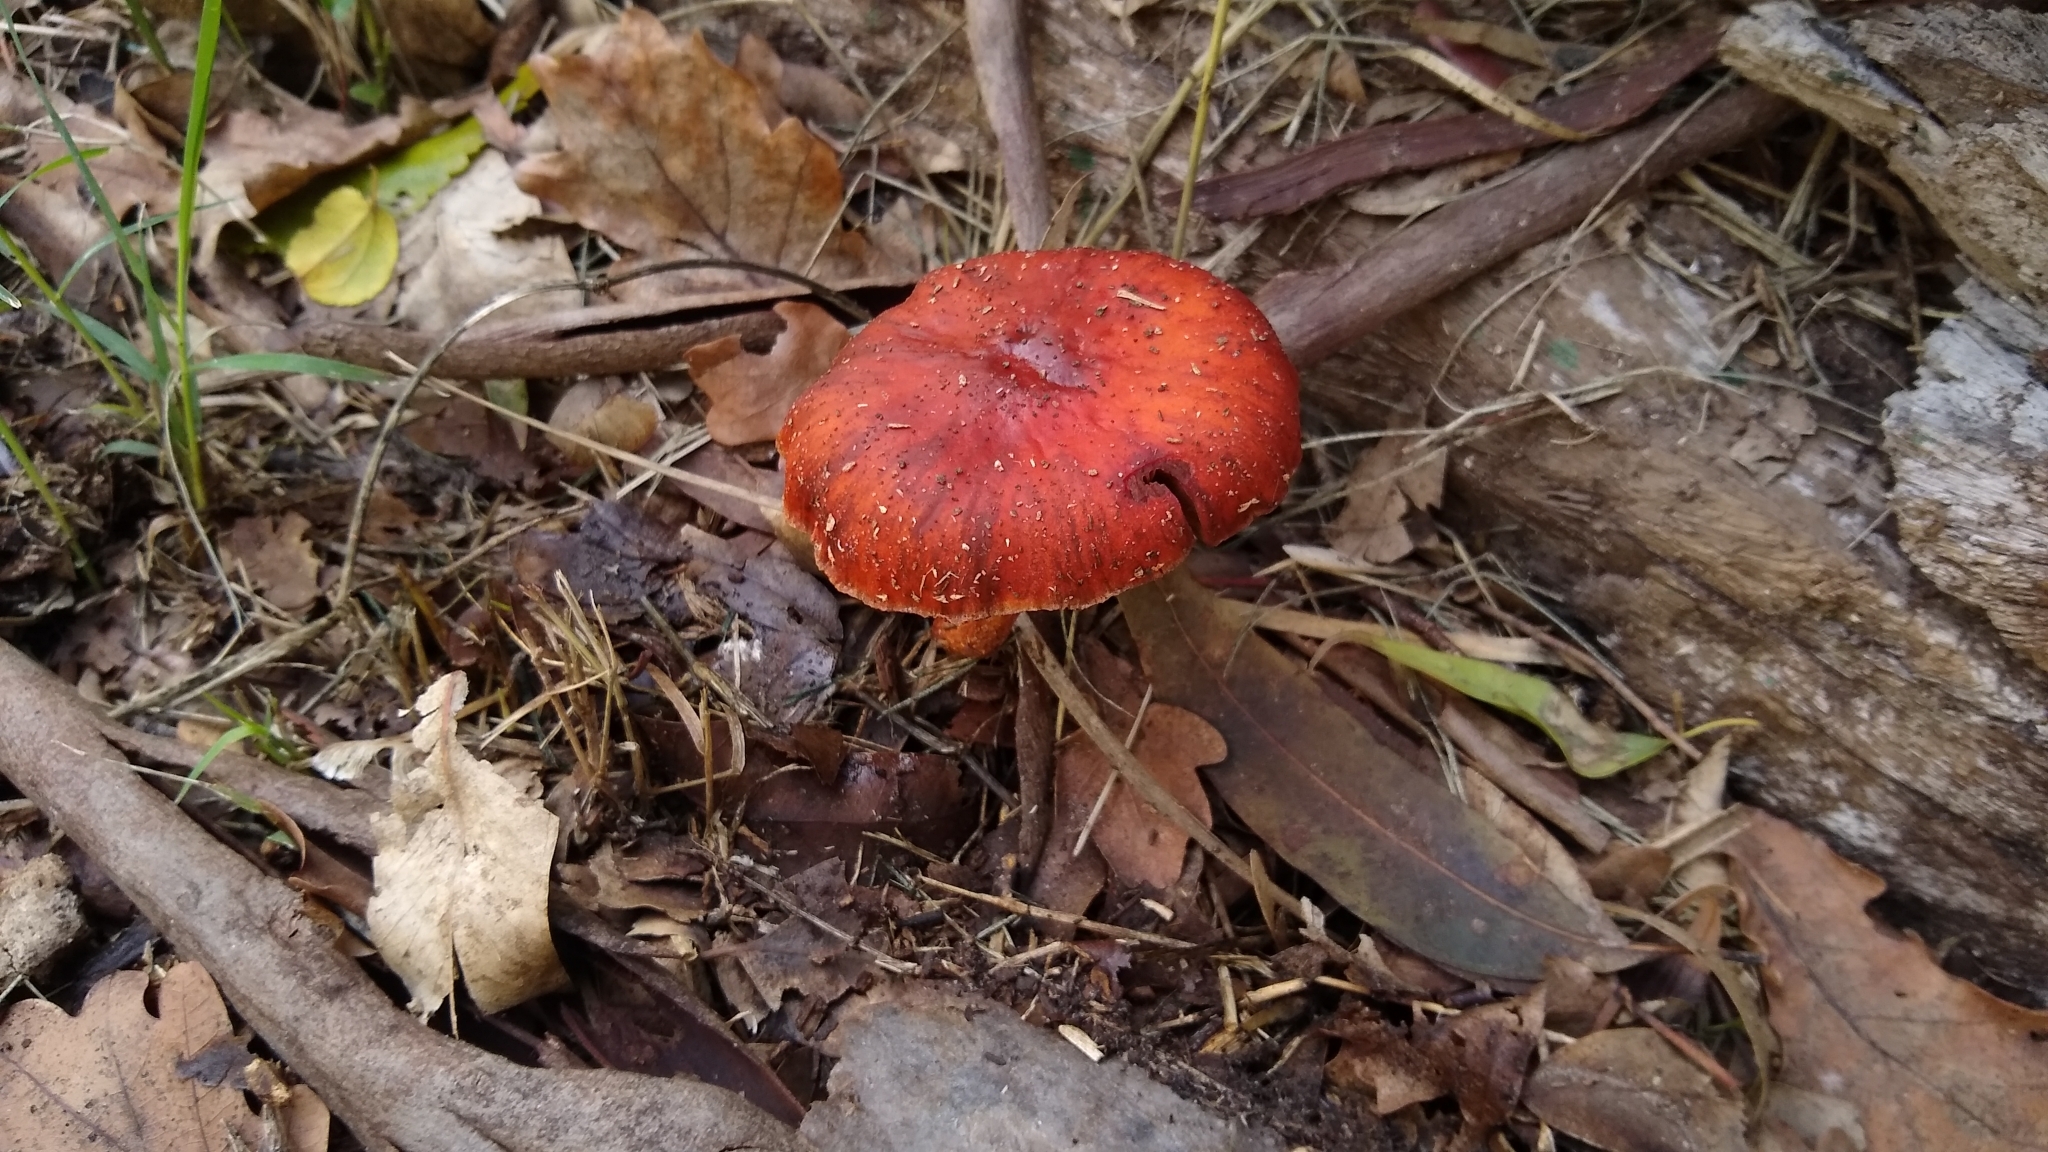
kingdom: Fungi
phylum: Basidiomycota
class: Agaricomycetes
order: Agaricales
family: Strophariaceae
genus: Leratiomyces
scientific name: Leratiomyces ceres
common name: Redlead roundhead
